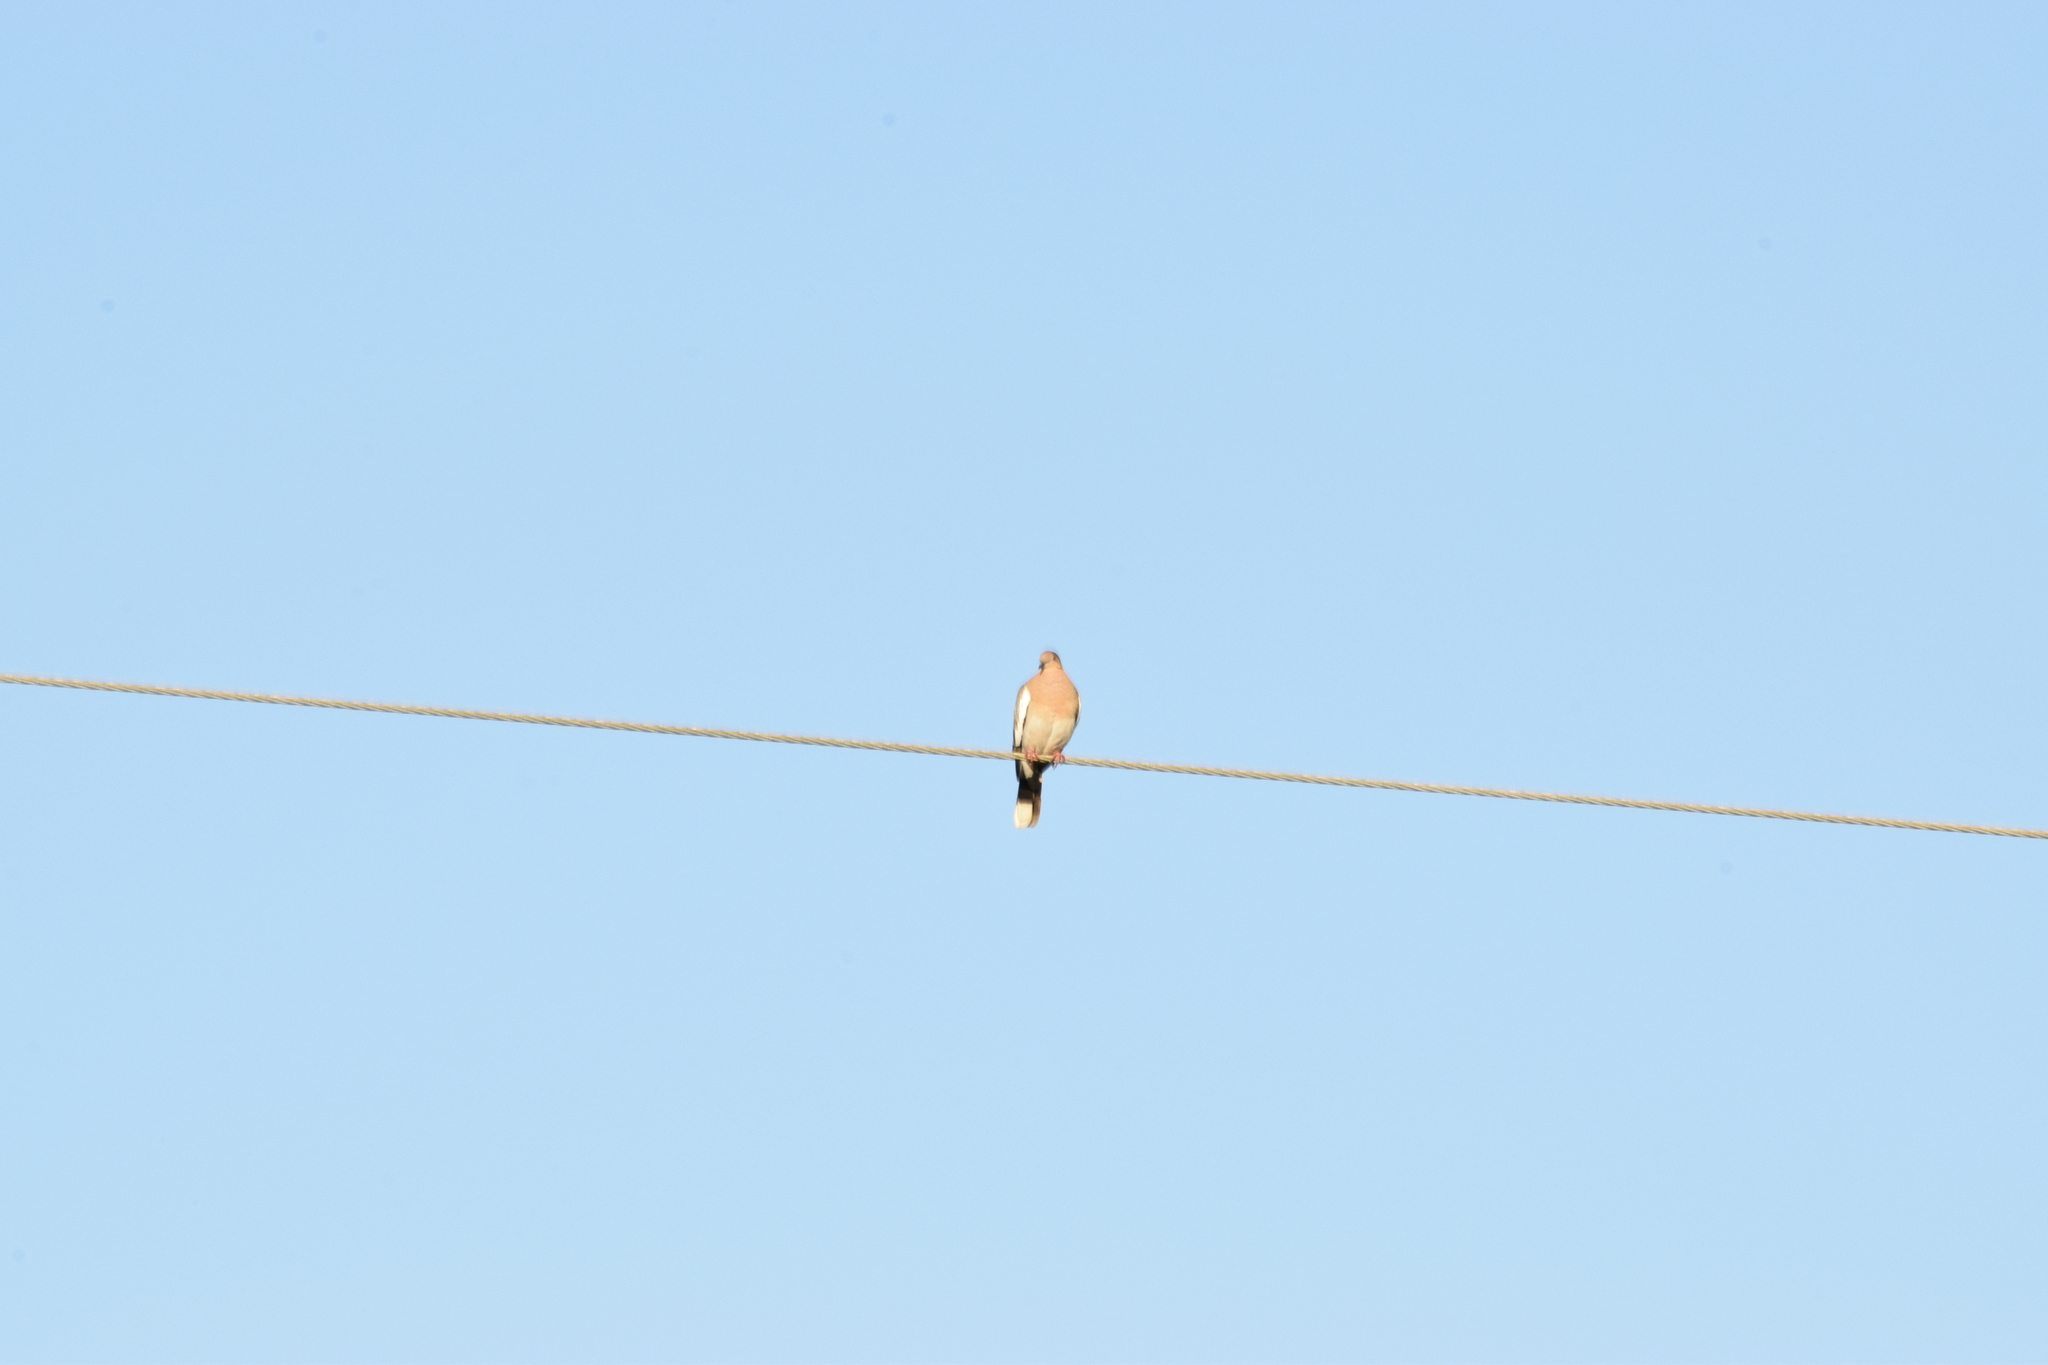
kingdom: Animalia
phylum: Chordata
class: Aves
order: Columbiformes
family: Columbidae
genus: Zenaida
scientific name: Zenaida asiatica
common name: White-winged dove
